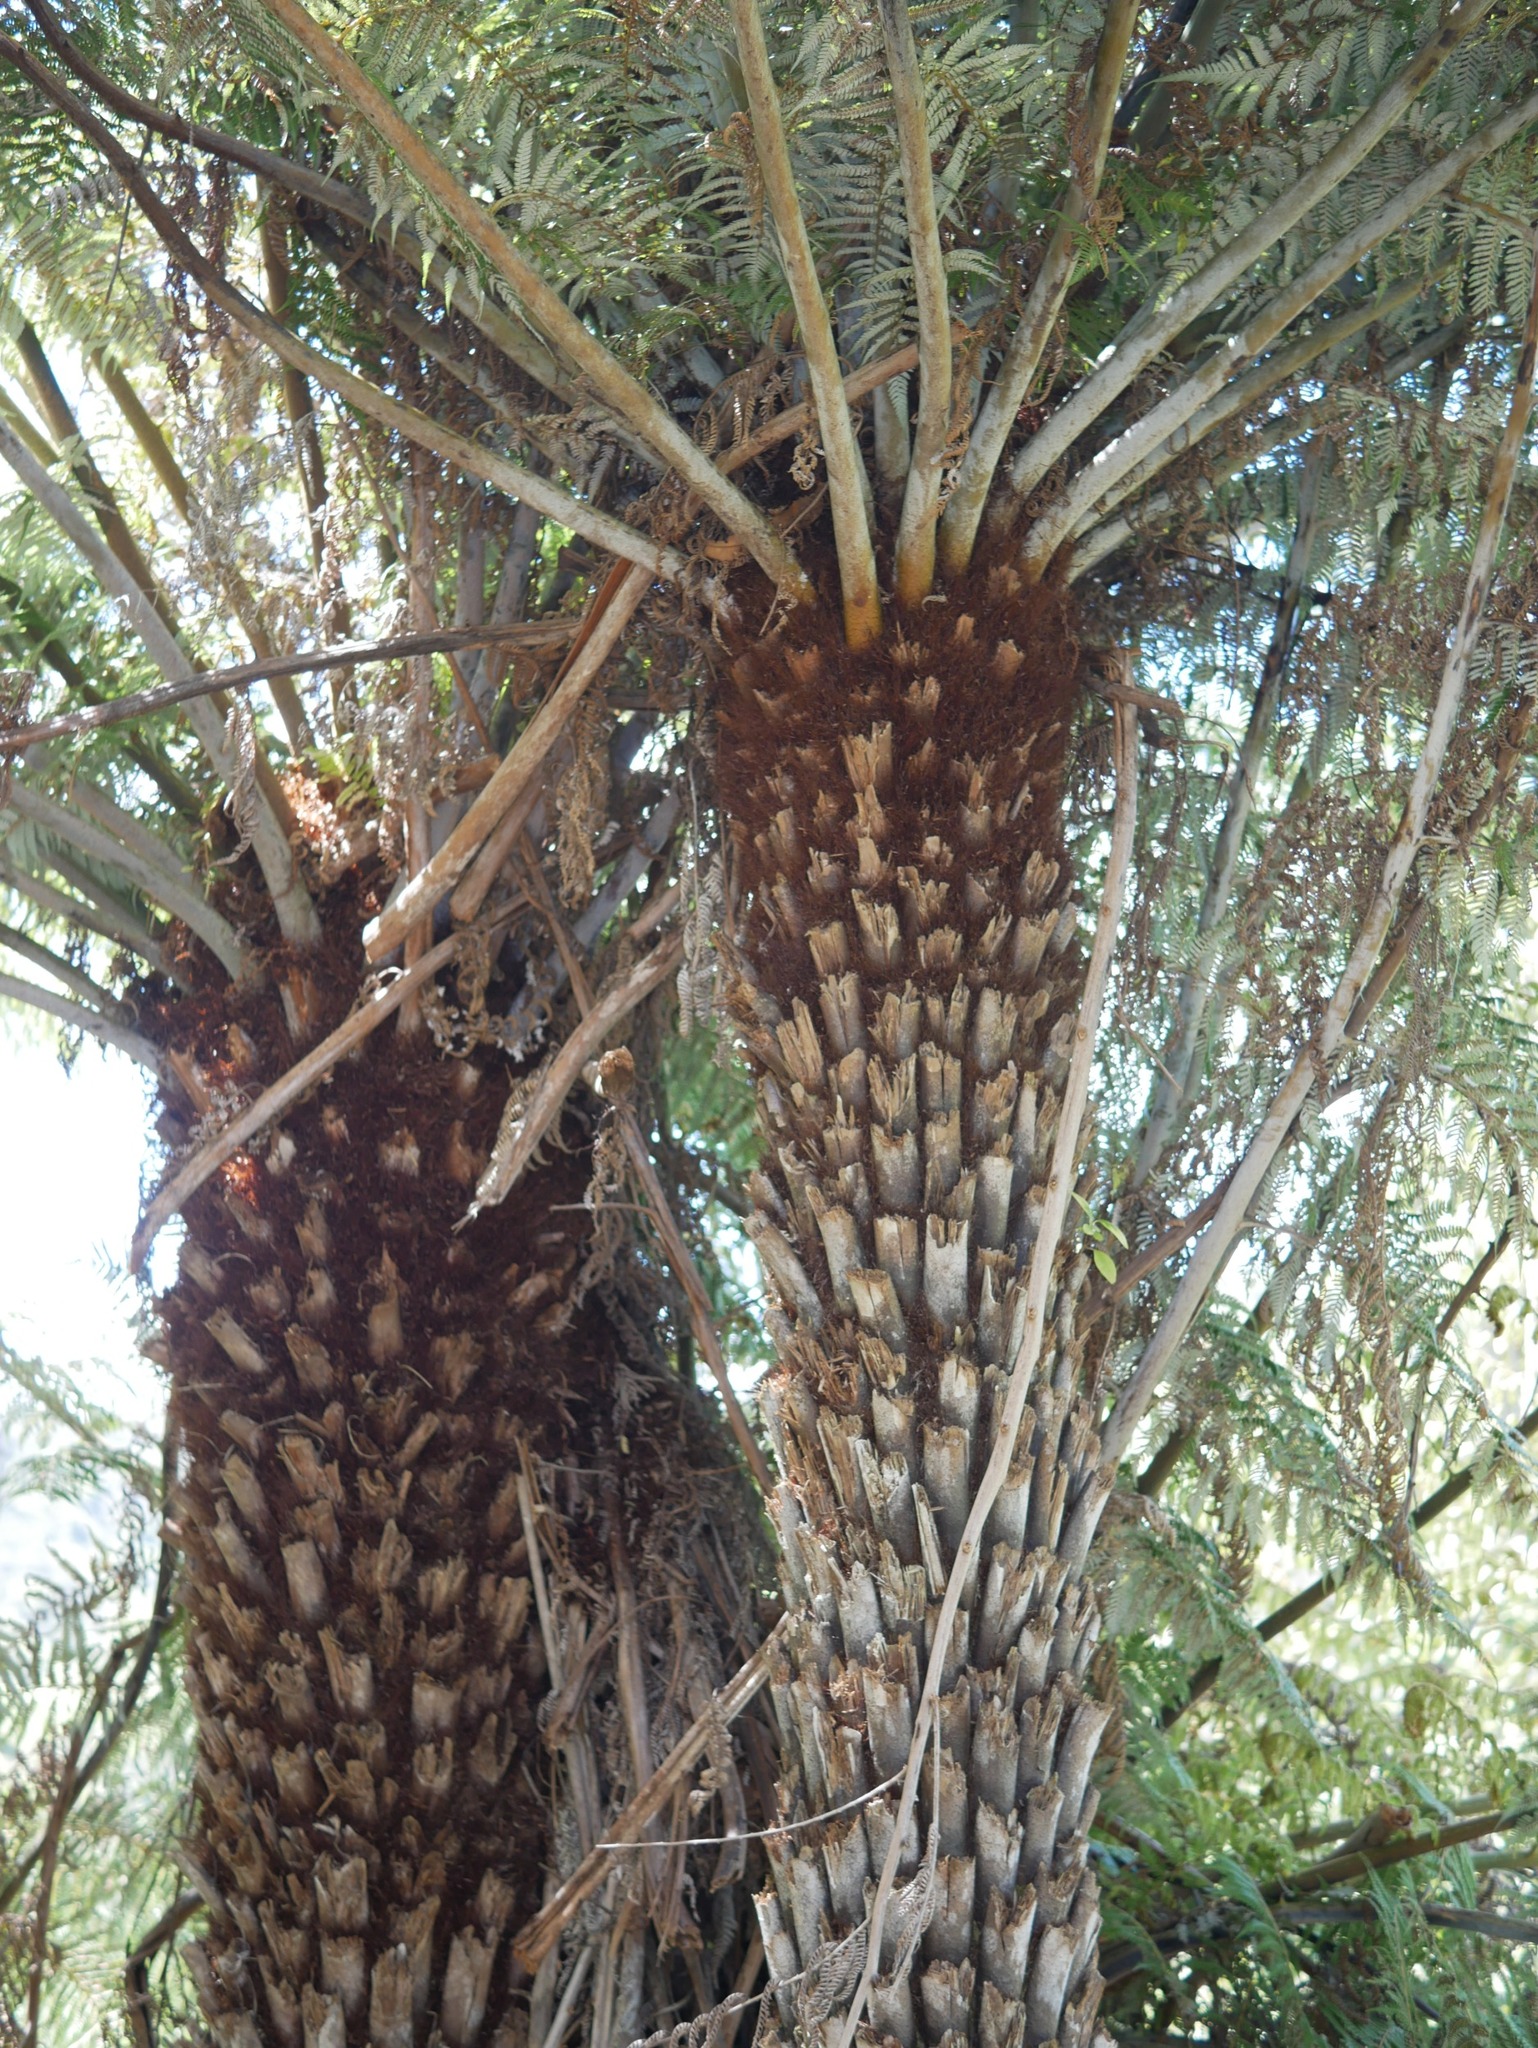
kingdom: Plantae
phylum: Tracheophyta
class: Polypodiopsida
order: Cyatheales
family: Cyatheaceae
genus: Alsophila
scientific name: Alsophila dealbata
